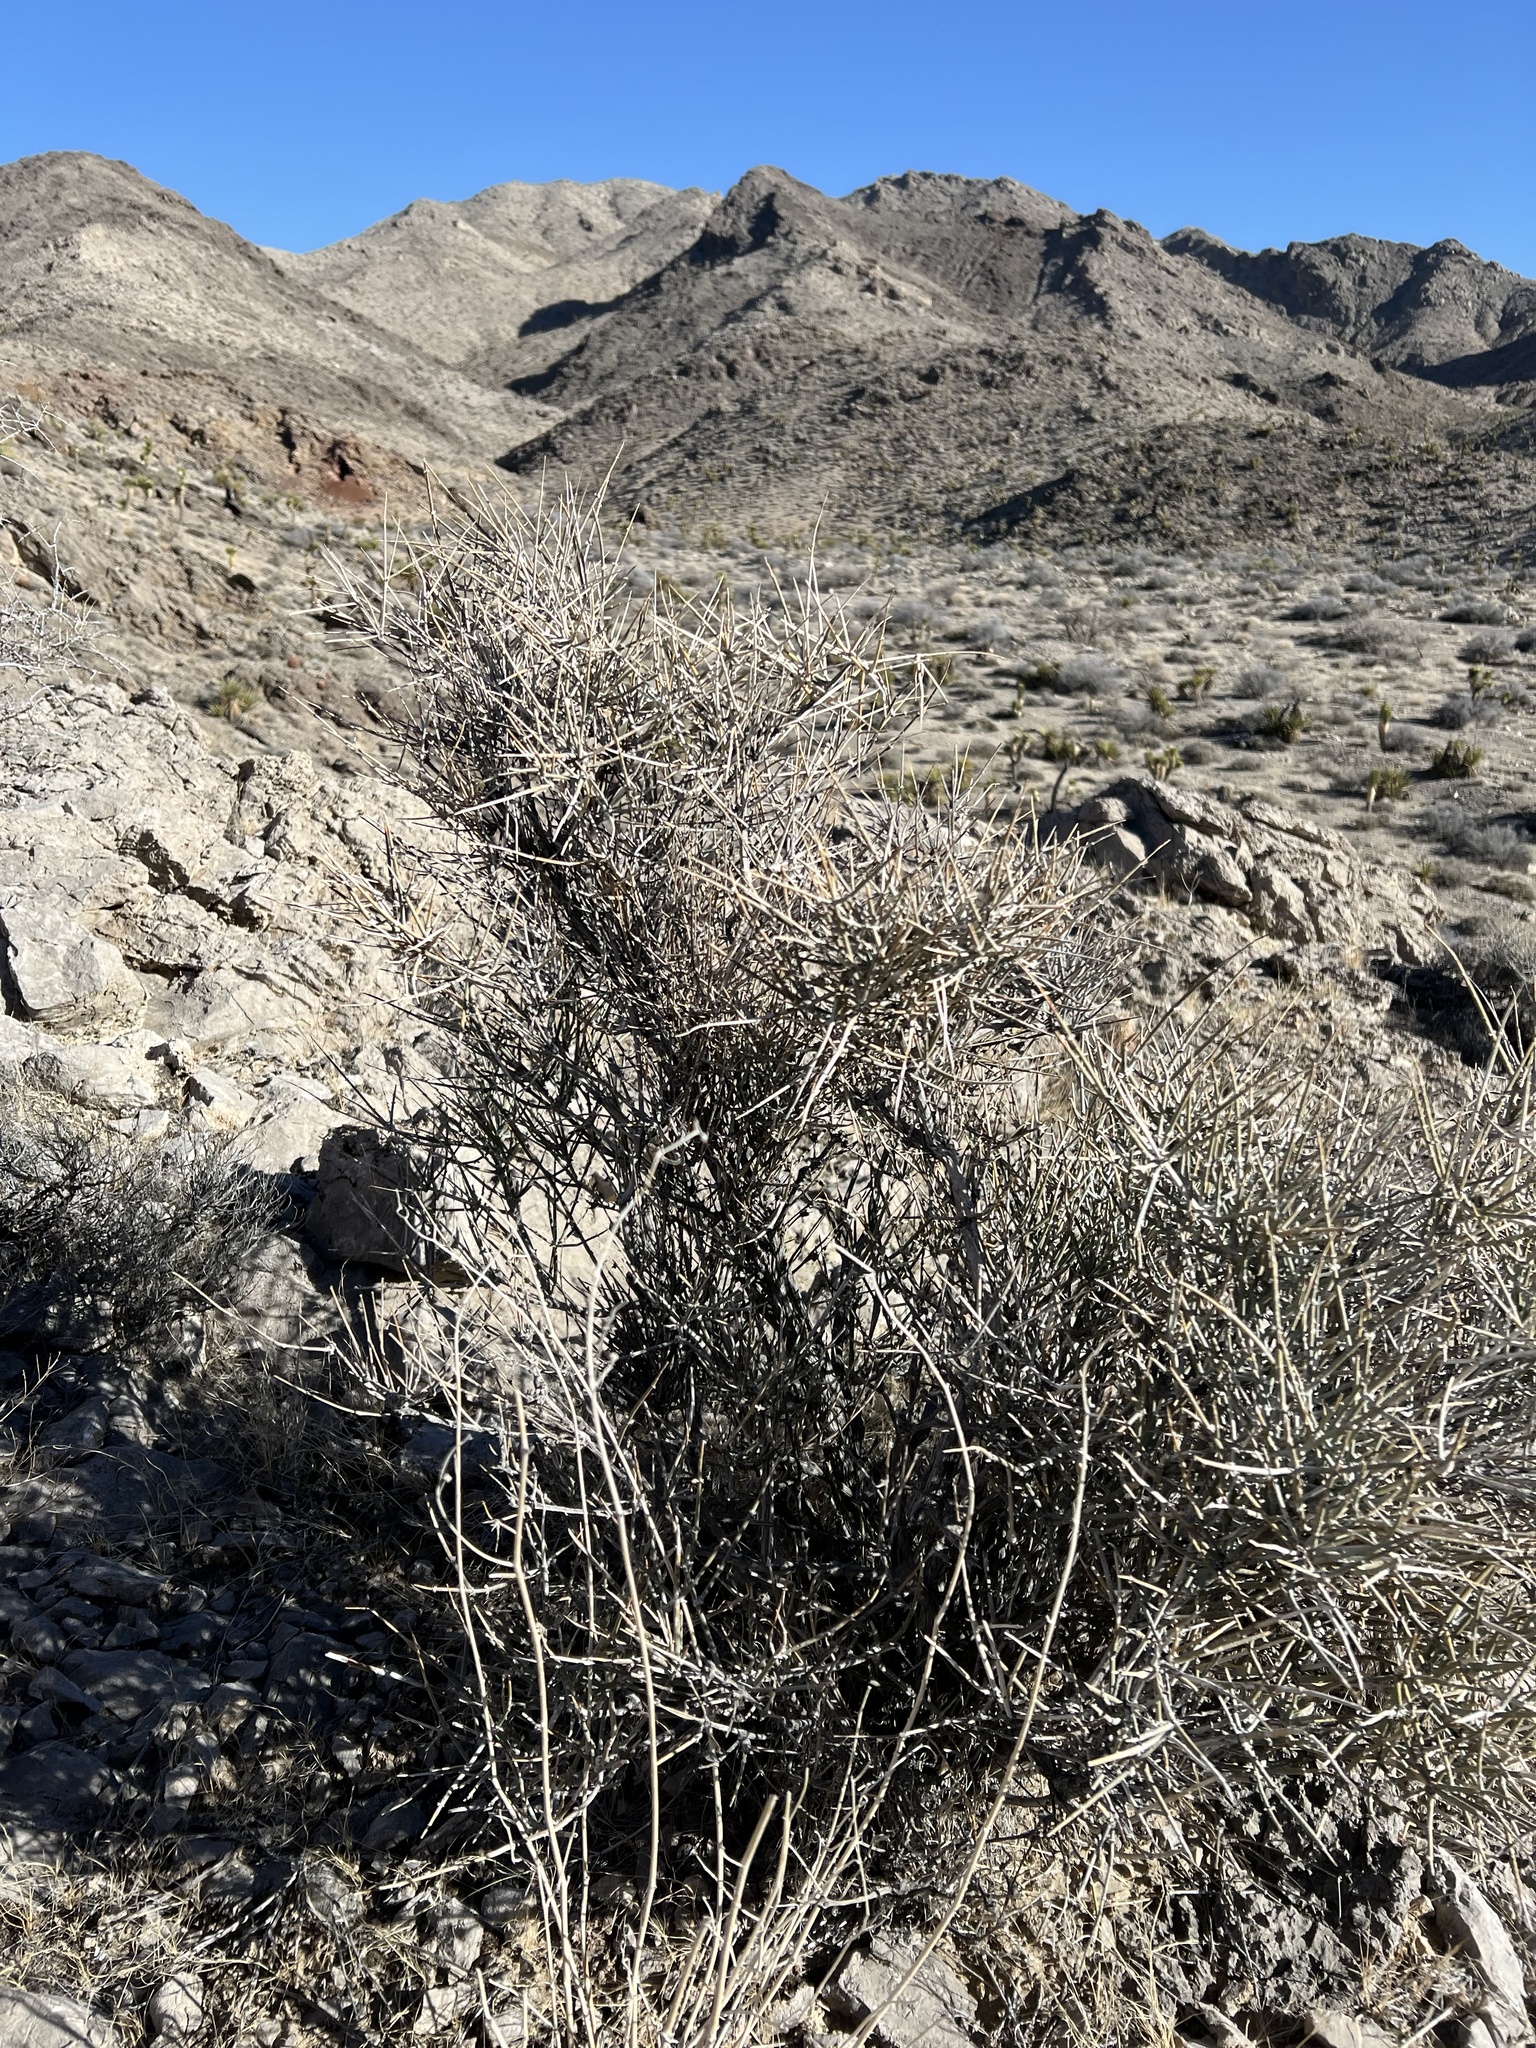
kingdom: Plantae
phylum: Tracheophyta
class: Gnetopsida
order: Ephedrales
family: Ephedraceae
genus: Ephedra
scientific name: Ephedra nevadensis
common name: Gray ephedra
